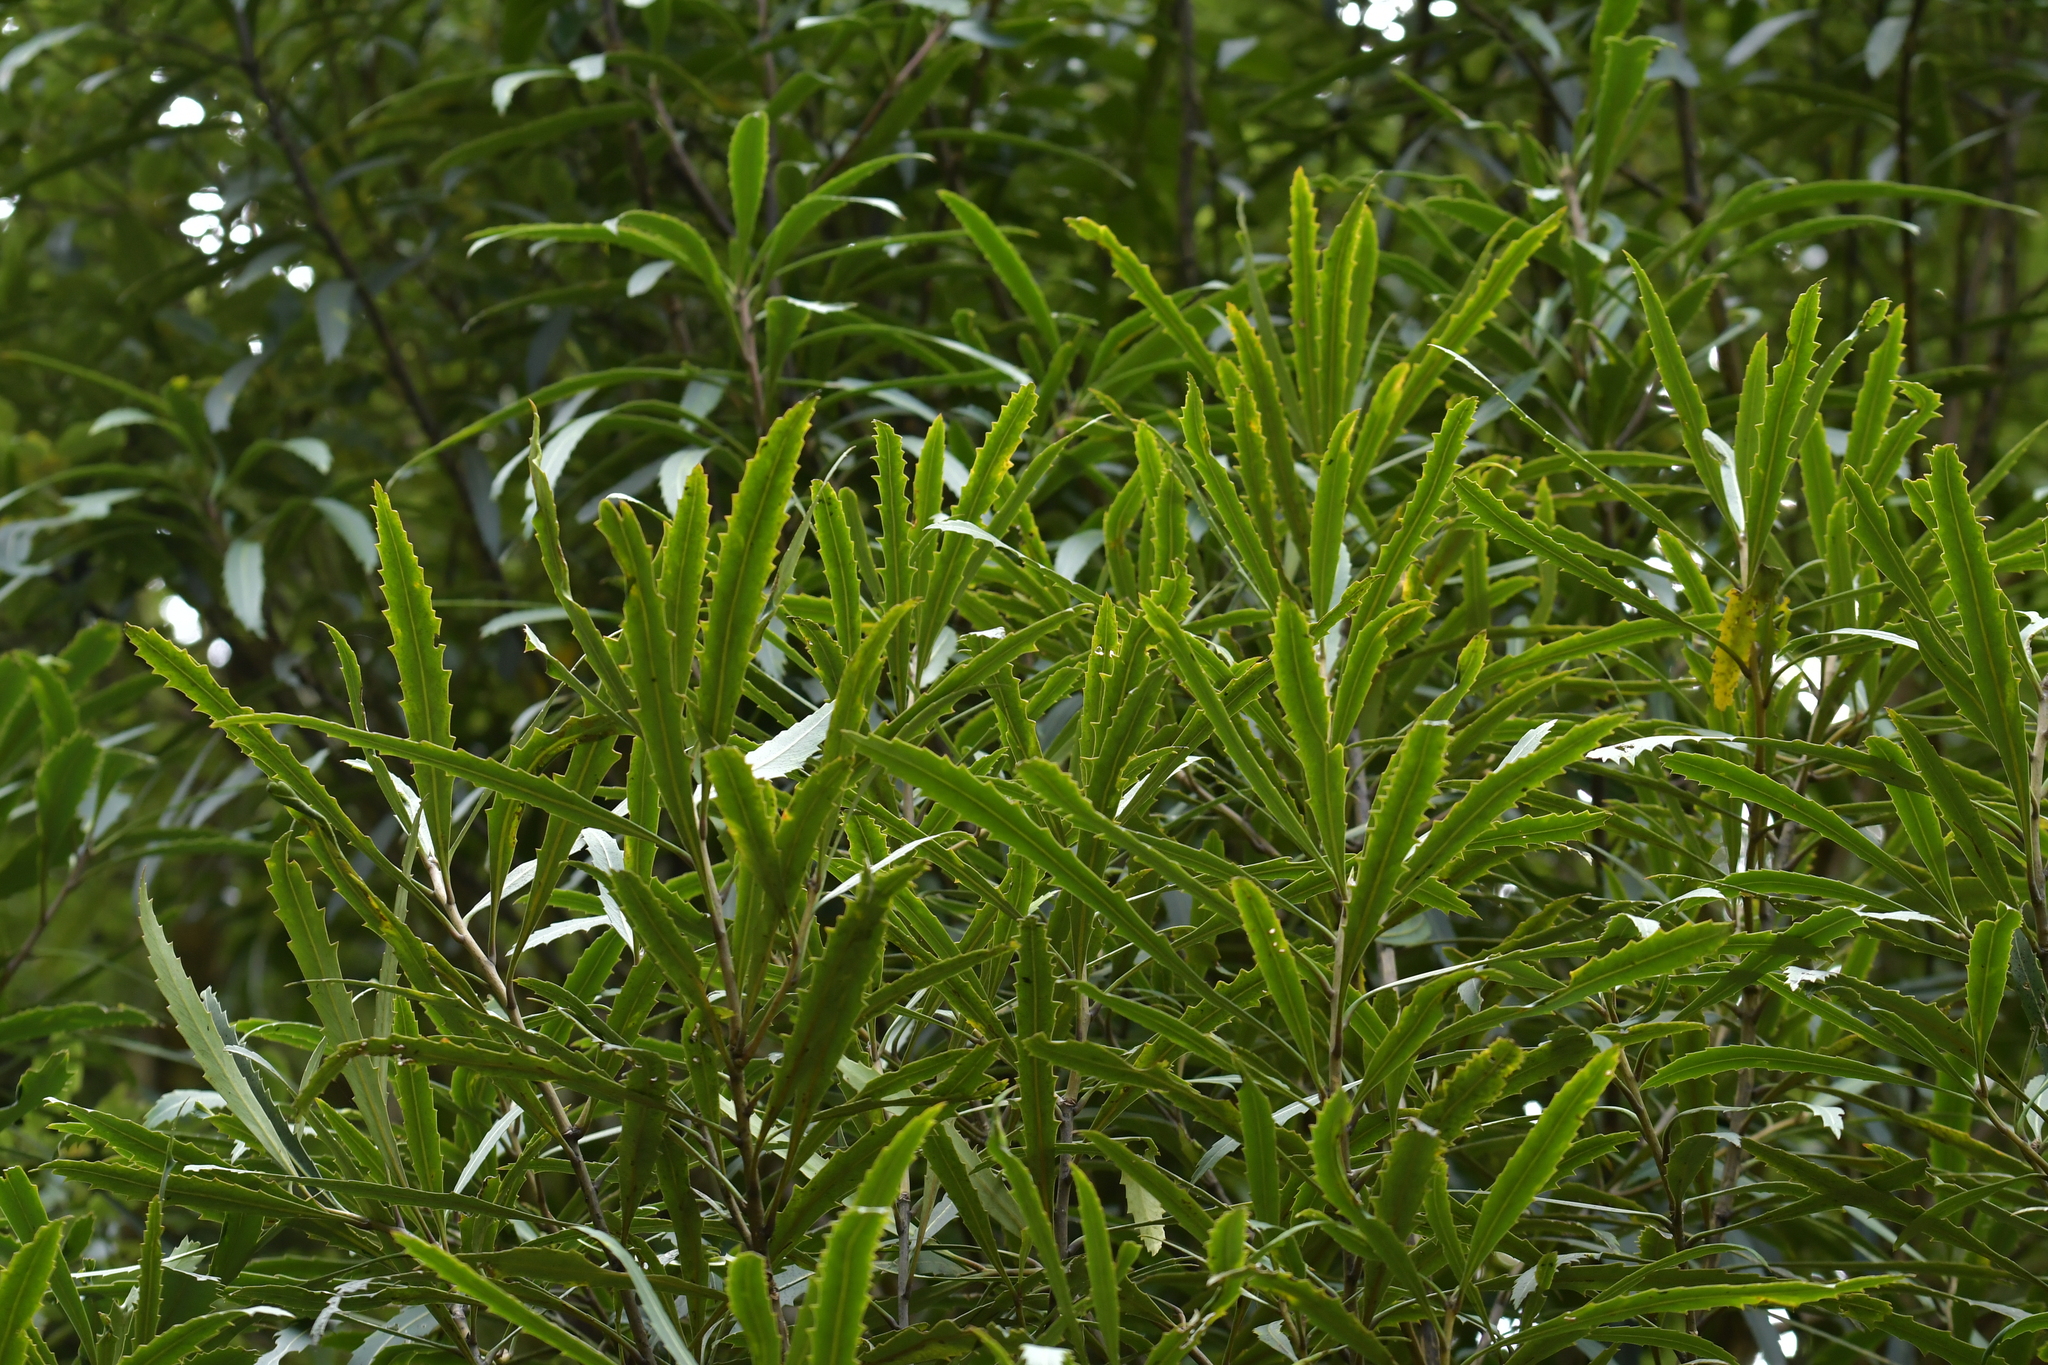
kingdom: Plantae
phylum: Tracheophyta
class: Magnoliopsida
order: Apiales
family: Araliaceae
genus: Pseudopanax
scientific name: Pseudopanax crassifolius
